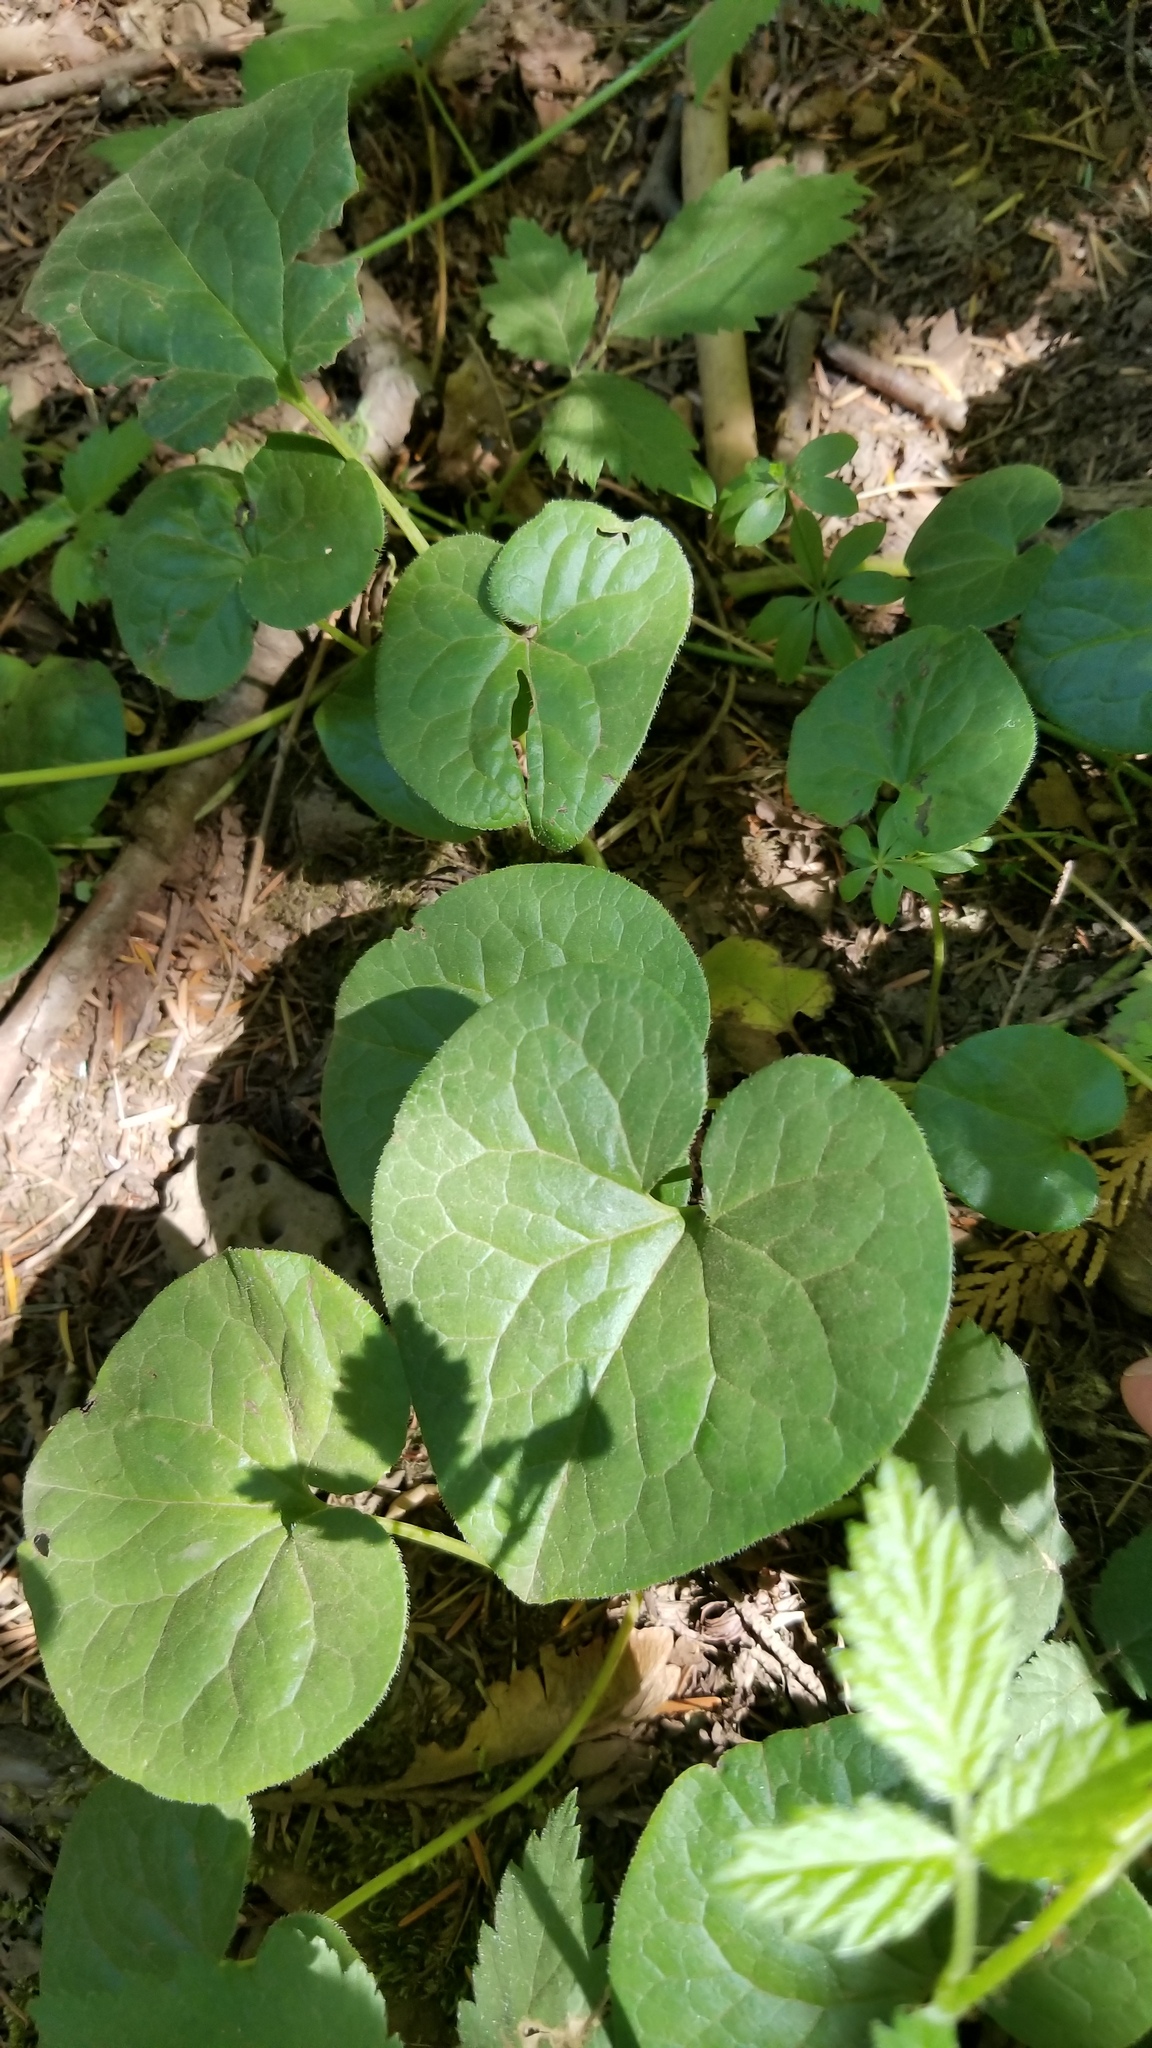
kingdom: Plantae
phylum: Tracheophyta
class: Magnoliopsida
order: Piperales
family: Aristolochiaceae
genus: Asarum
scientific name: Asarum caudatum
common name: Wild ginger
